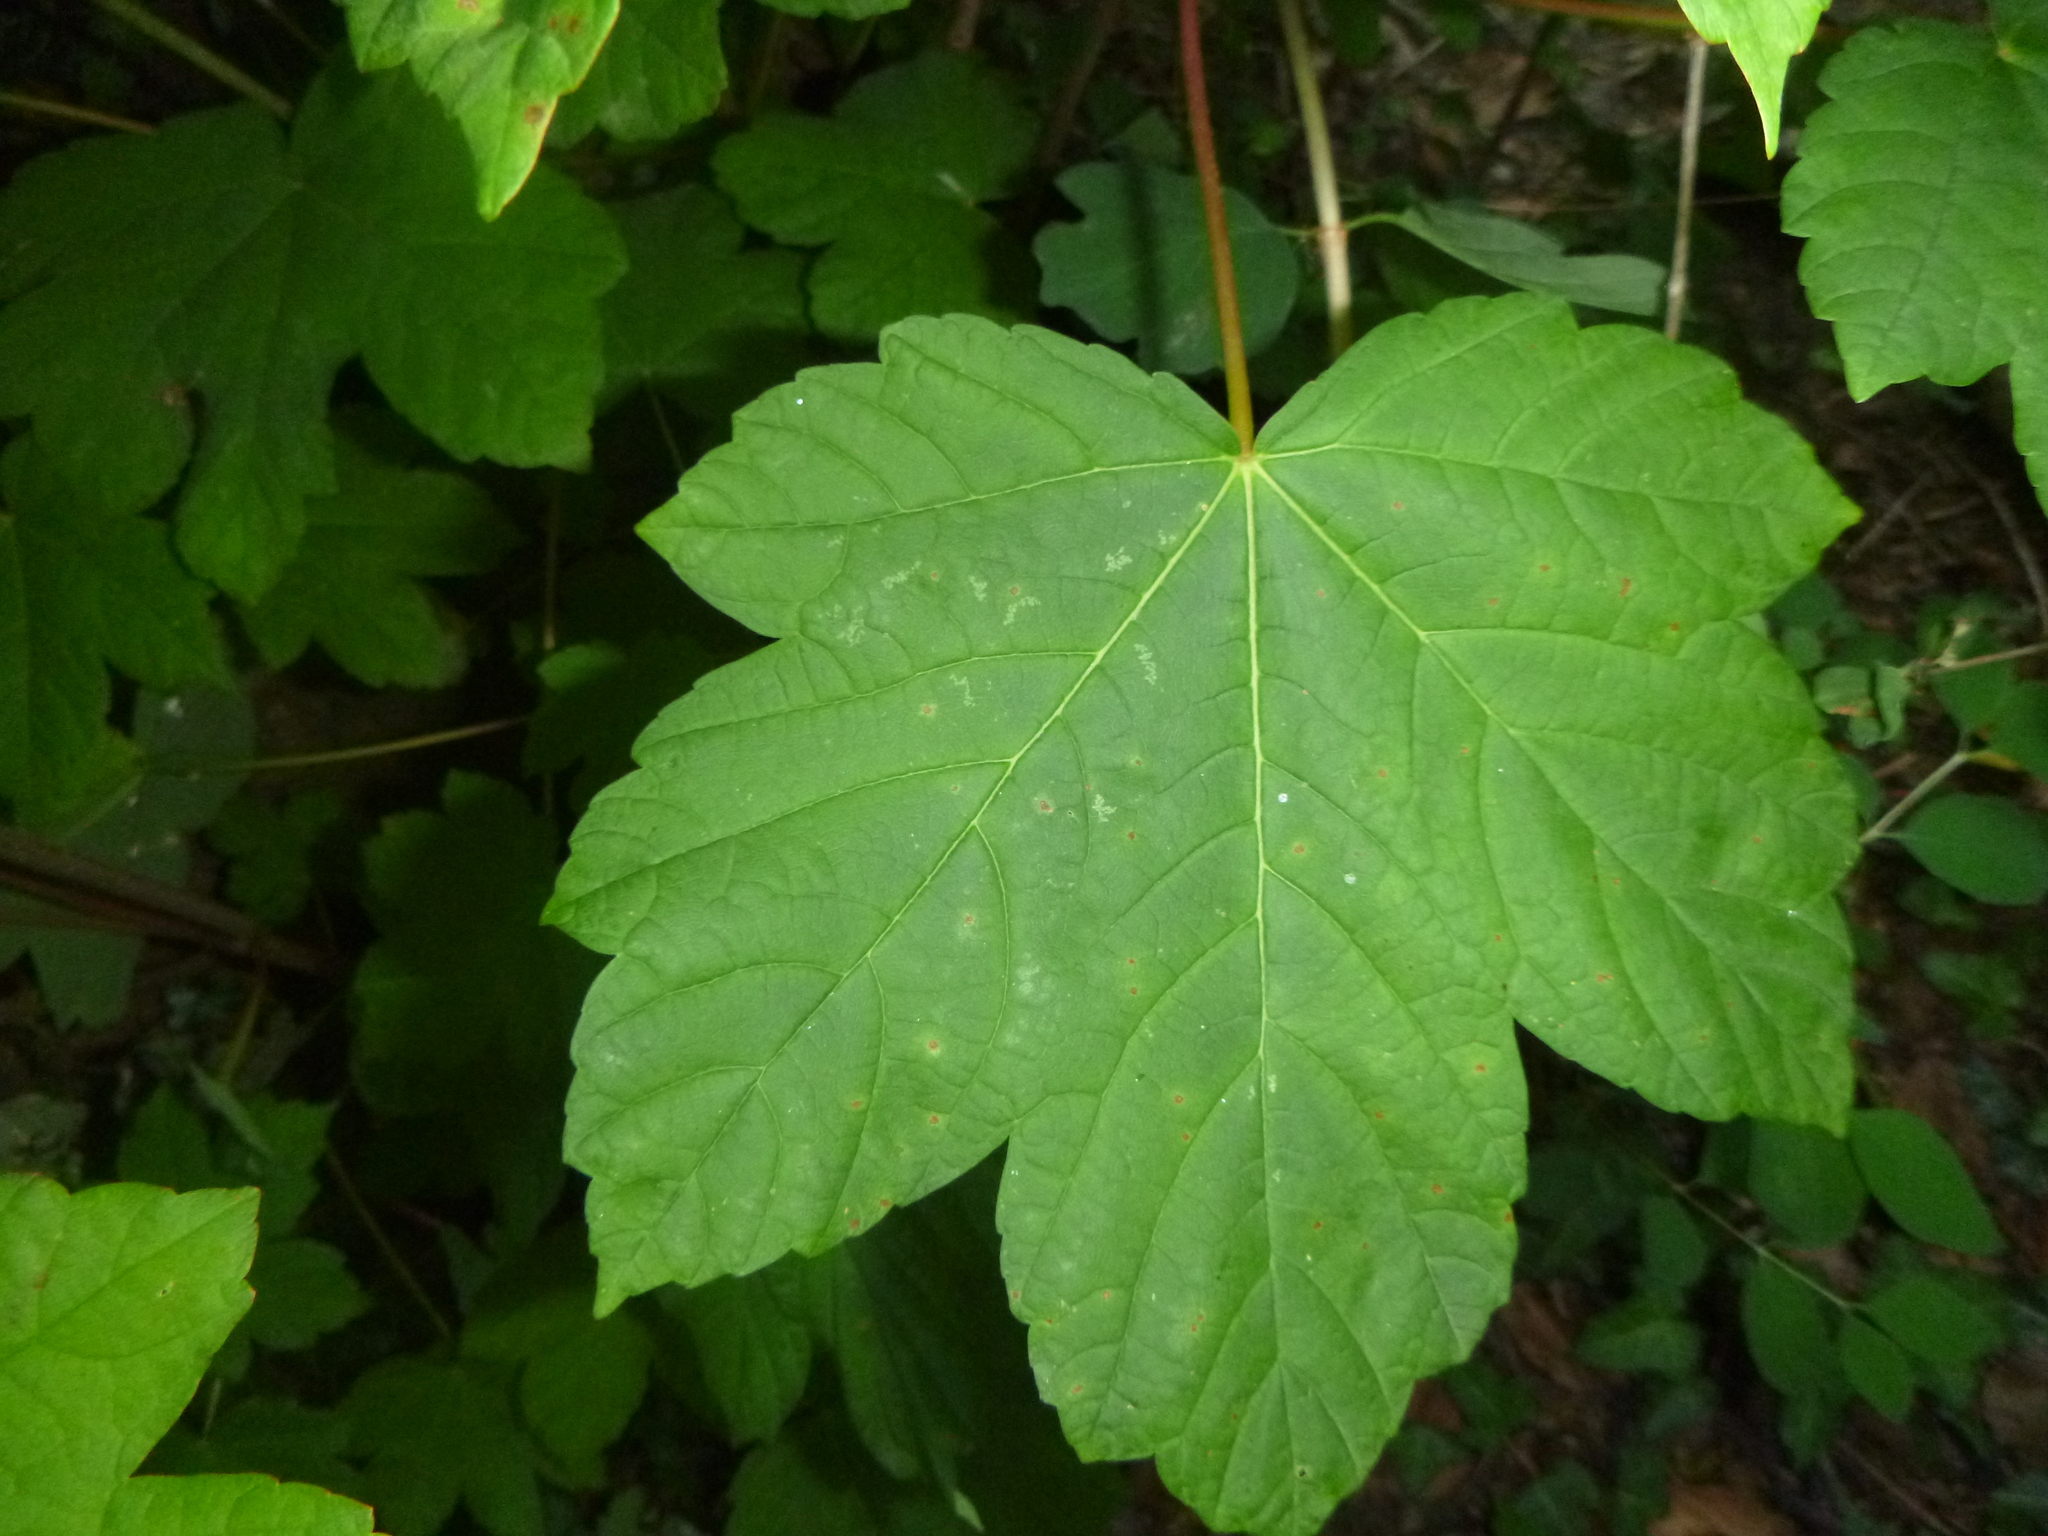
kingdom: Plantae
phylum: Tracheophyta
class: Magnoliopsida
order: Sapindales
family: Sapindaceae
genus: Acer
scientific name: Acer pseudoplatanus
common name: Sycamore
